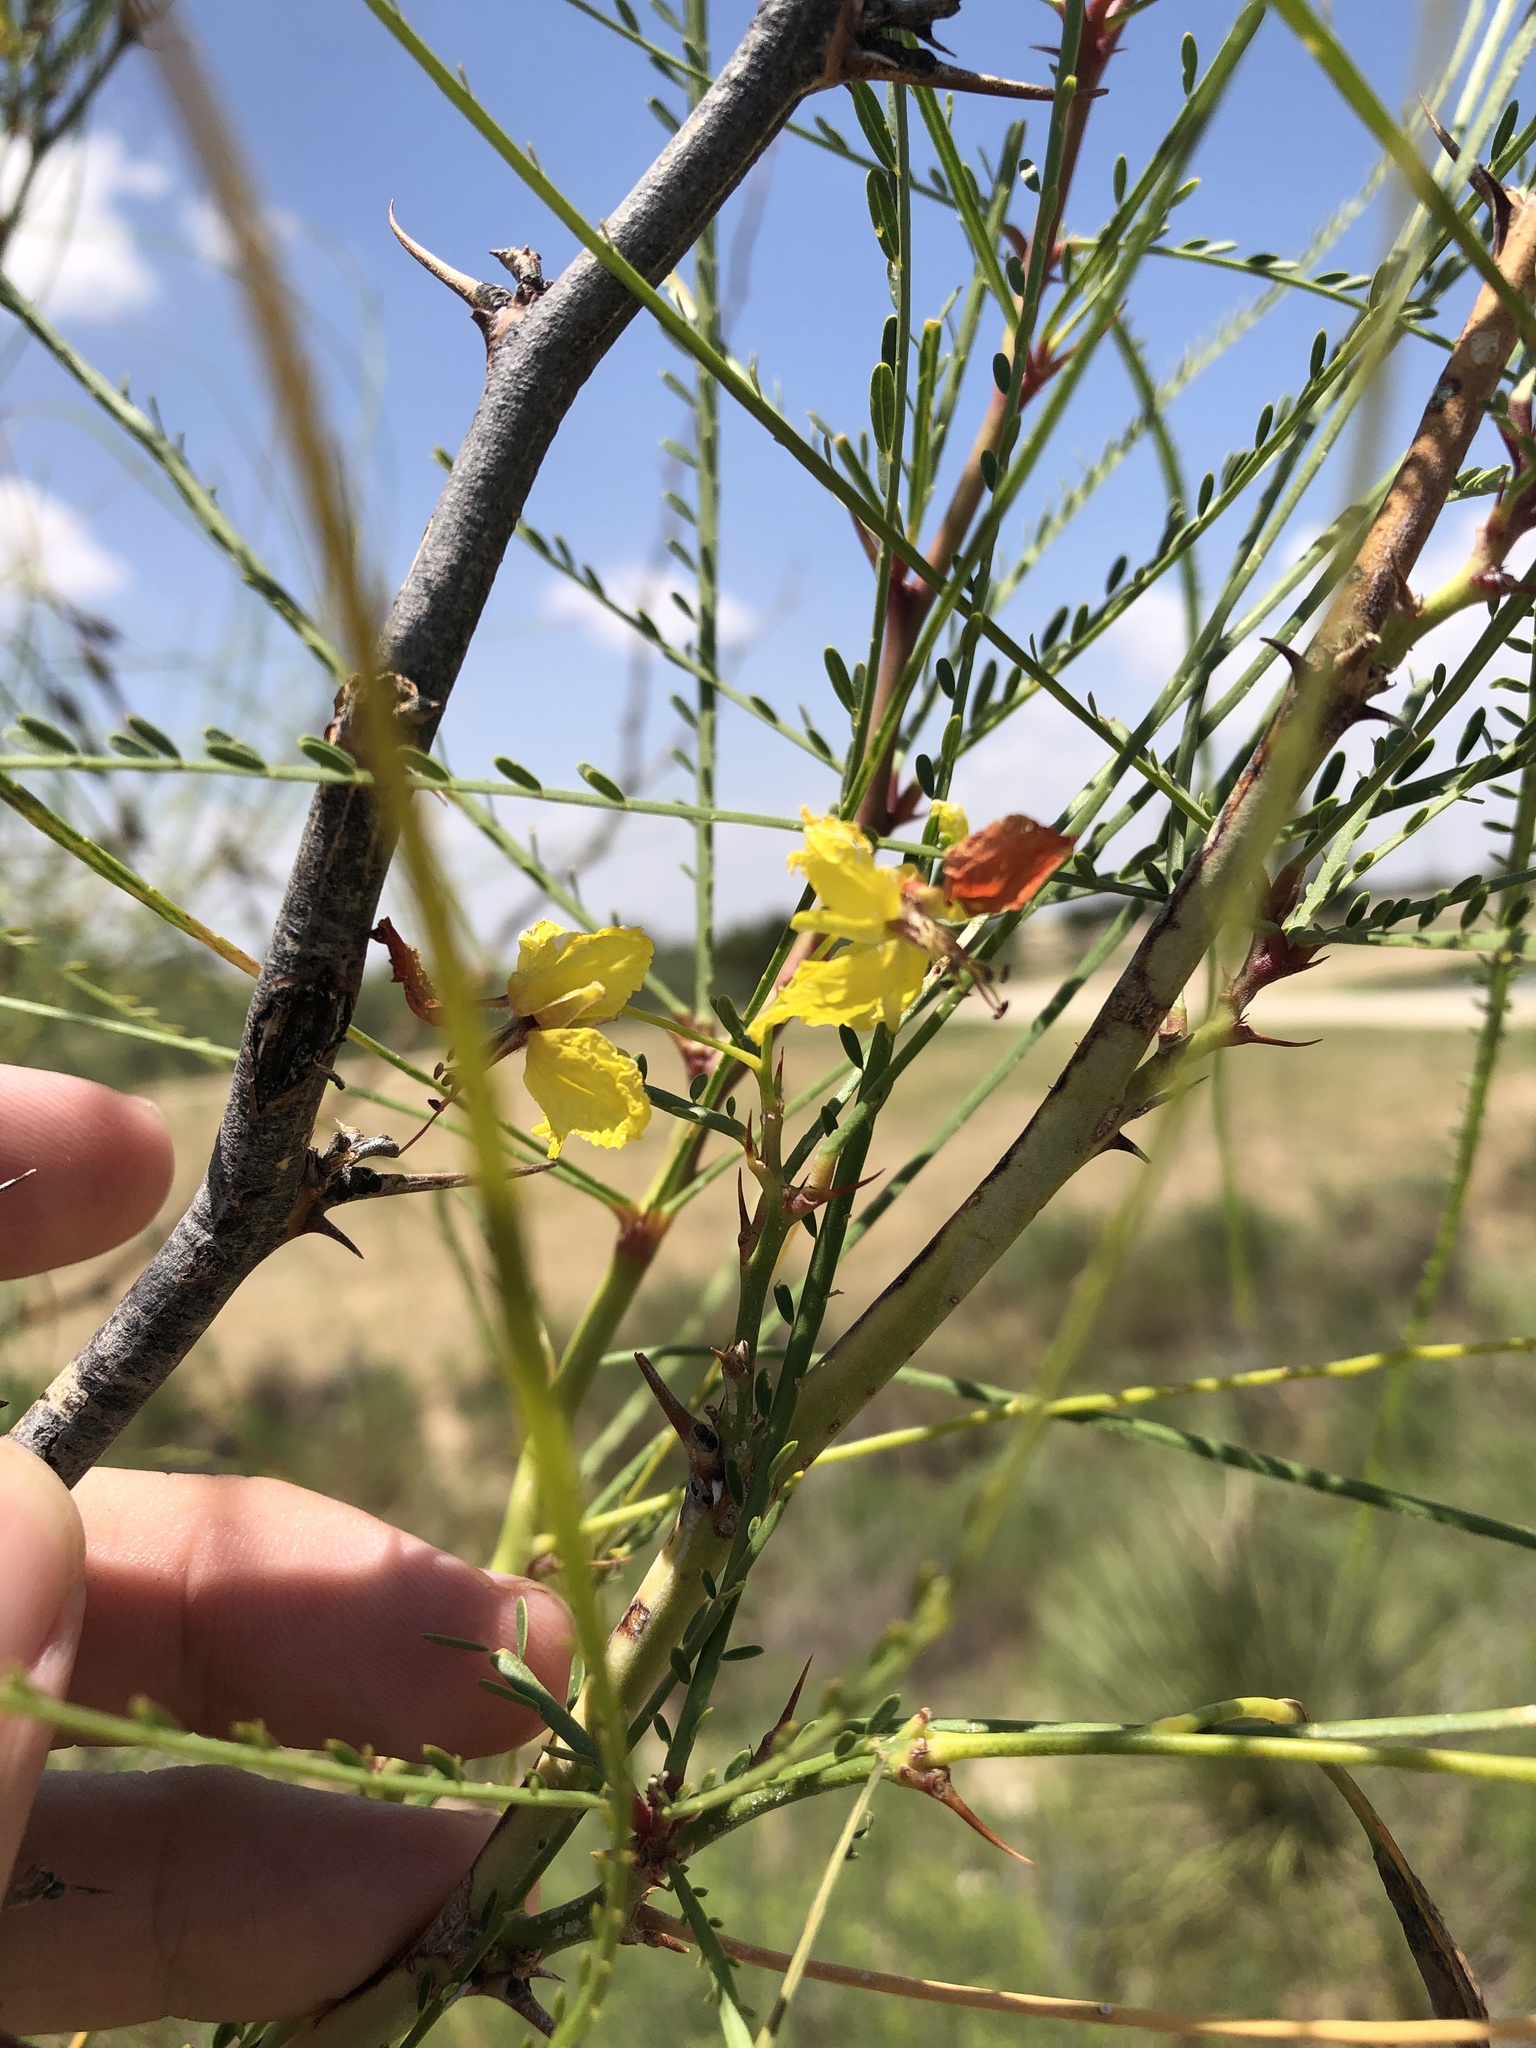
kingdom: Plantae
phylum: Tracheophyta
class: Magnoliopsida
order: Fabales
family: Fabaceae
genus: Parkinsonia
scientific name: Parkinsonia aculeata
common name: Jerusalem thorn
